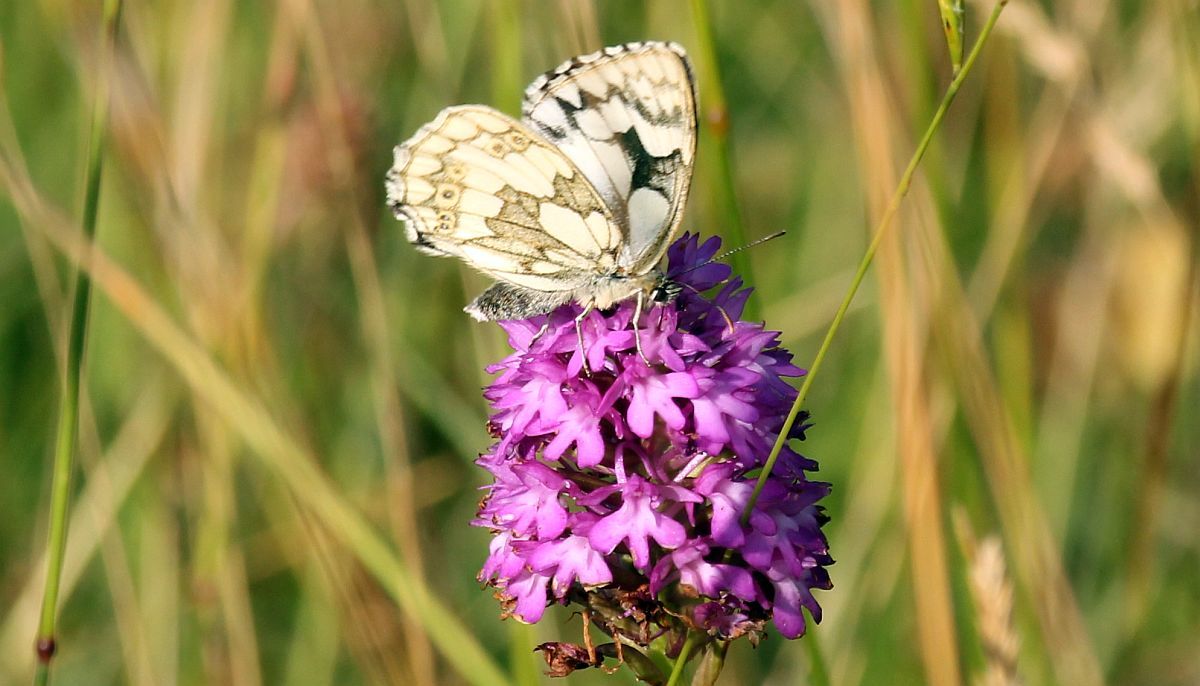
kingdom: Animalia
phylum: Arthropoda
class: Insecta
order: Lepidoptera
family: Nymphalidae
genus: Melanargia
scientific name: Melanargia galathea
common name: Marbled white
